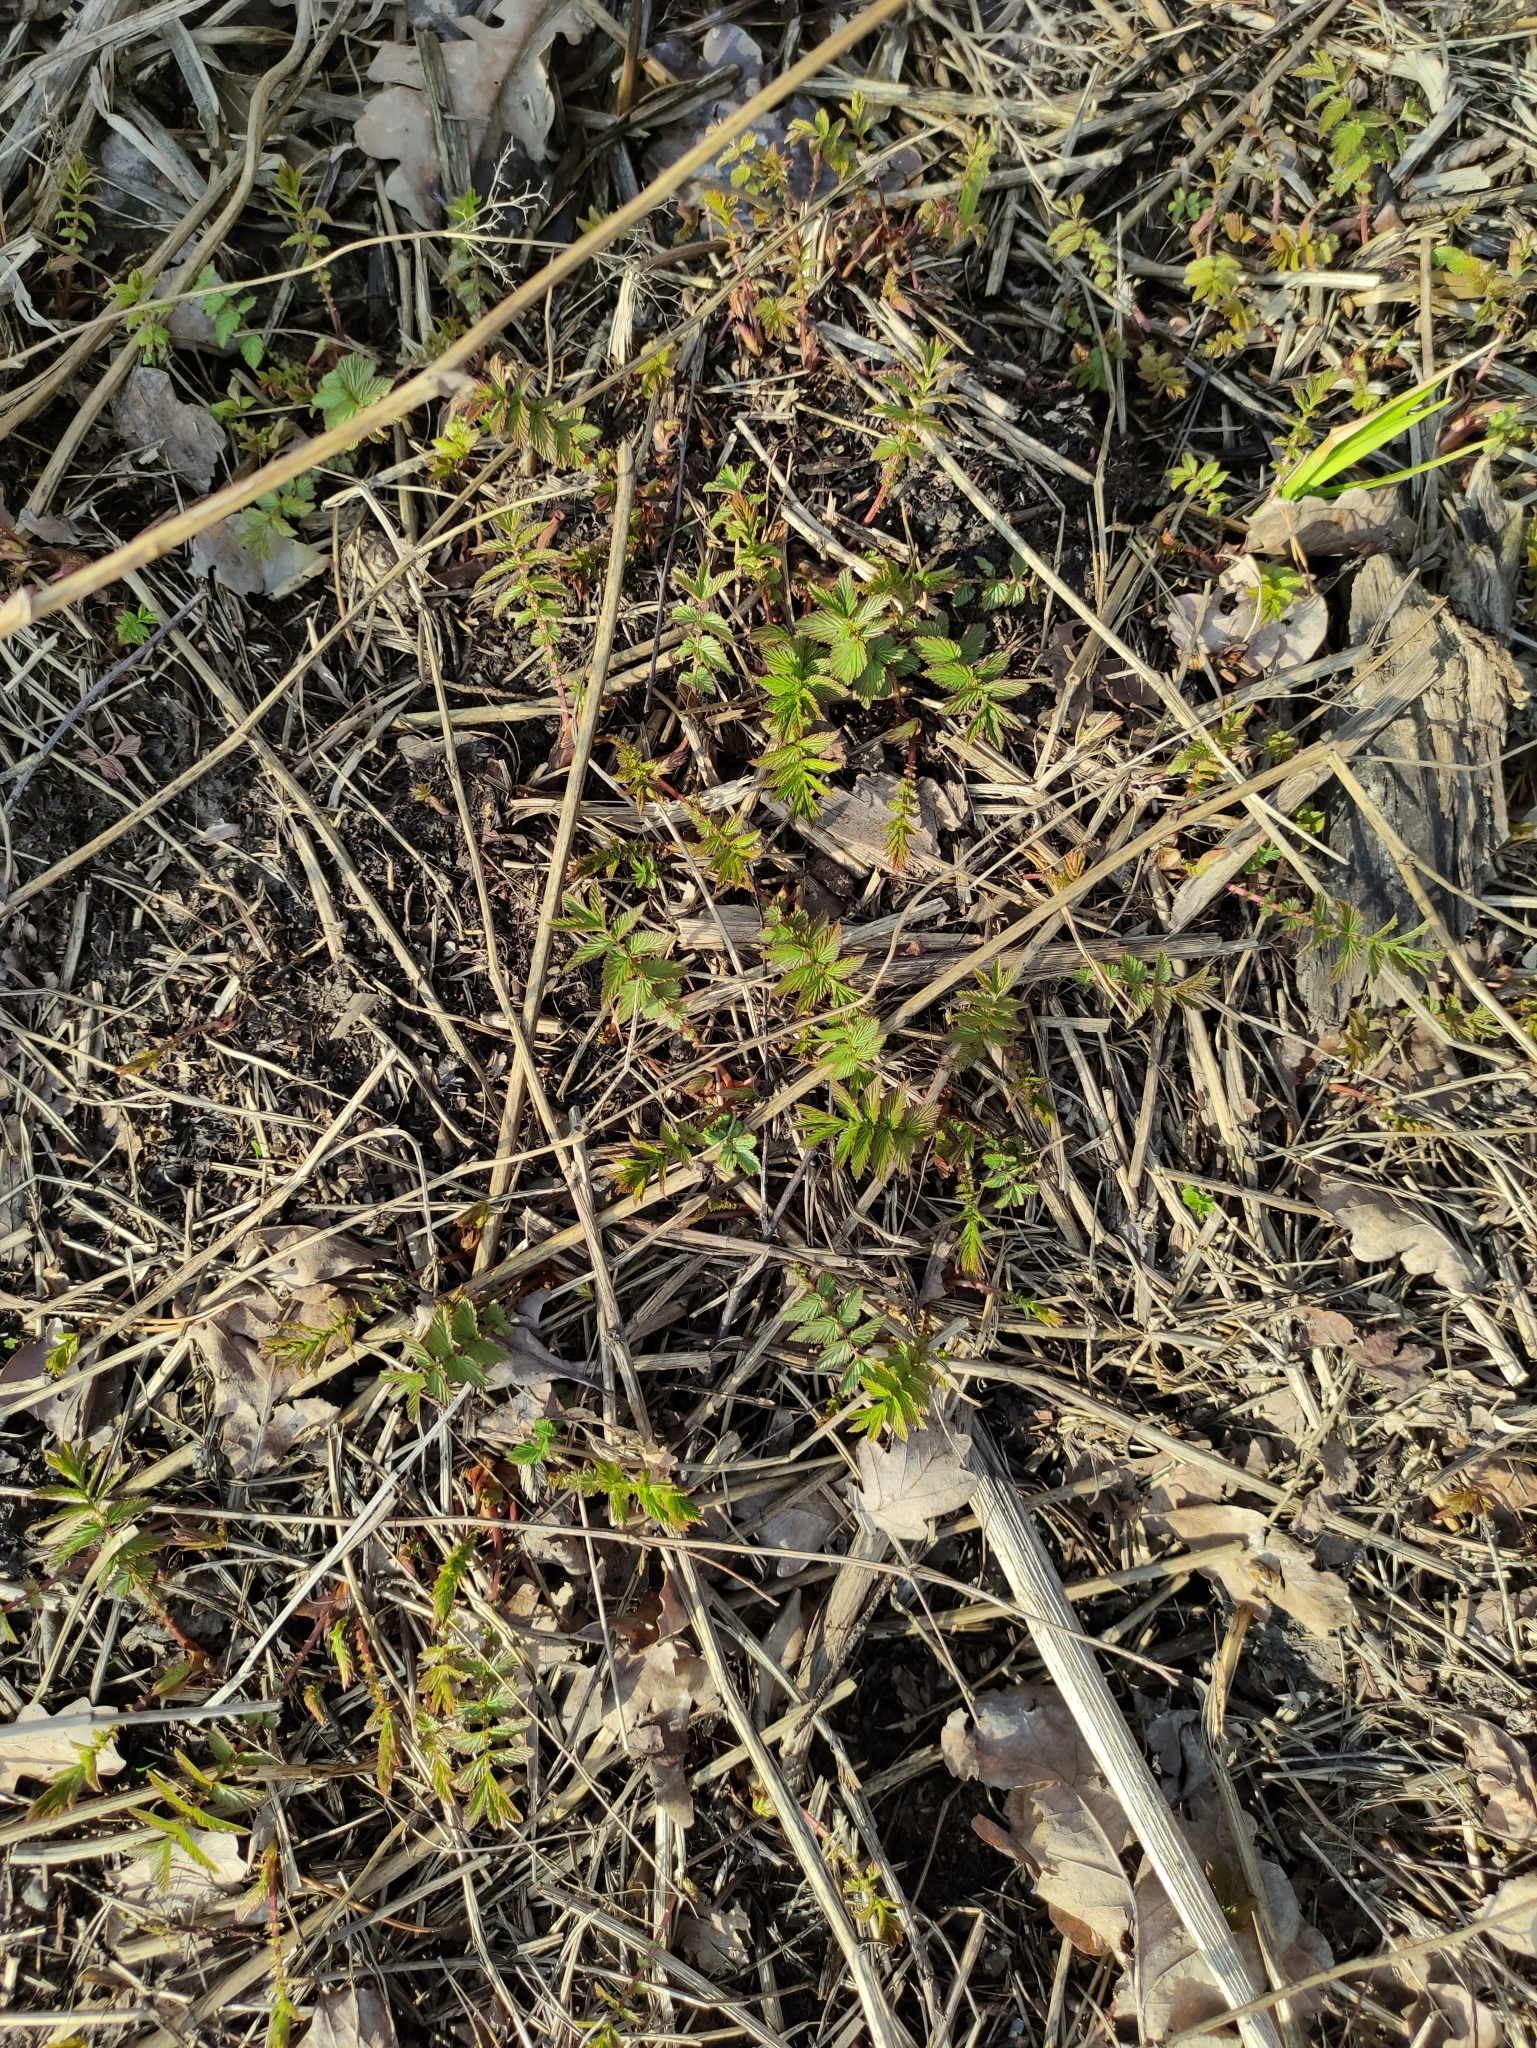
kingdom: Plantae
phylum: Tracheophyta
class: Magnoliopsida
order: Rosales
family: Rosaceae
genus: Filipendula
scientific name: Filipendula ulmaria
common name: Meadowsweet
